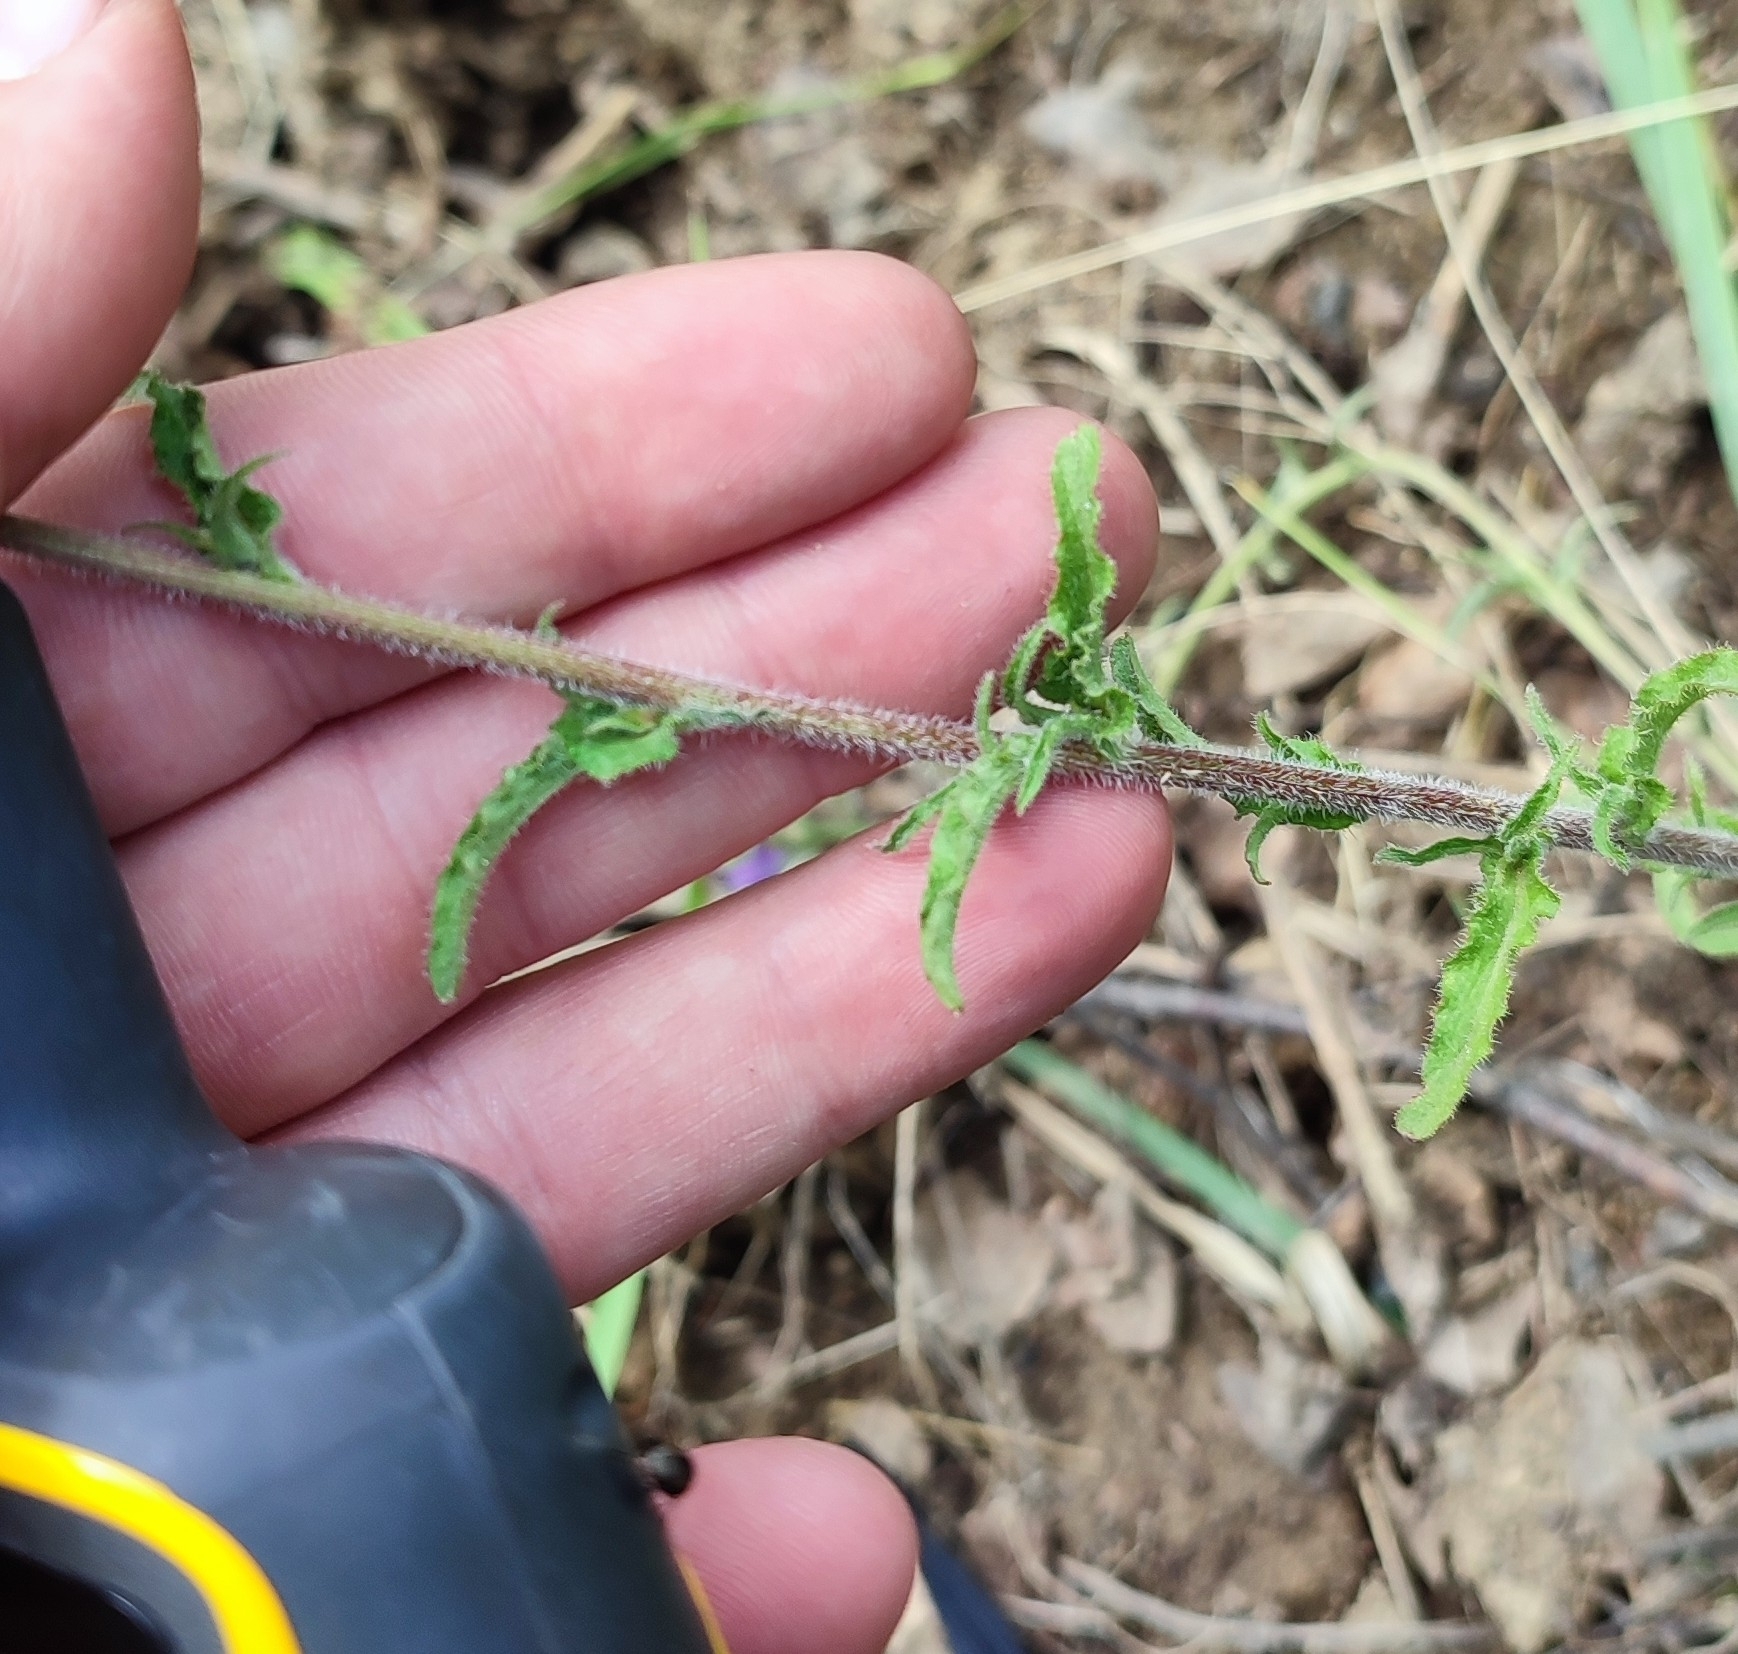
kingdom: Plantae
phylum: Tracheophyta
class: Magnoliopsida
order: Asterales
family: Campanulaceae
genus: Campanula
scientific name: Campanula sibirica
